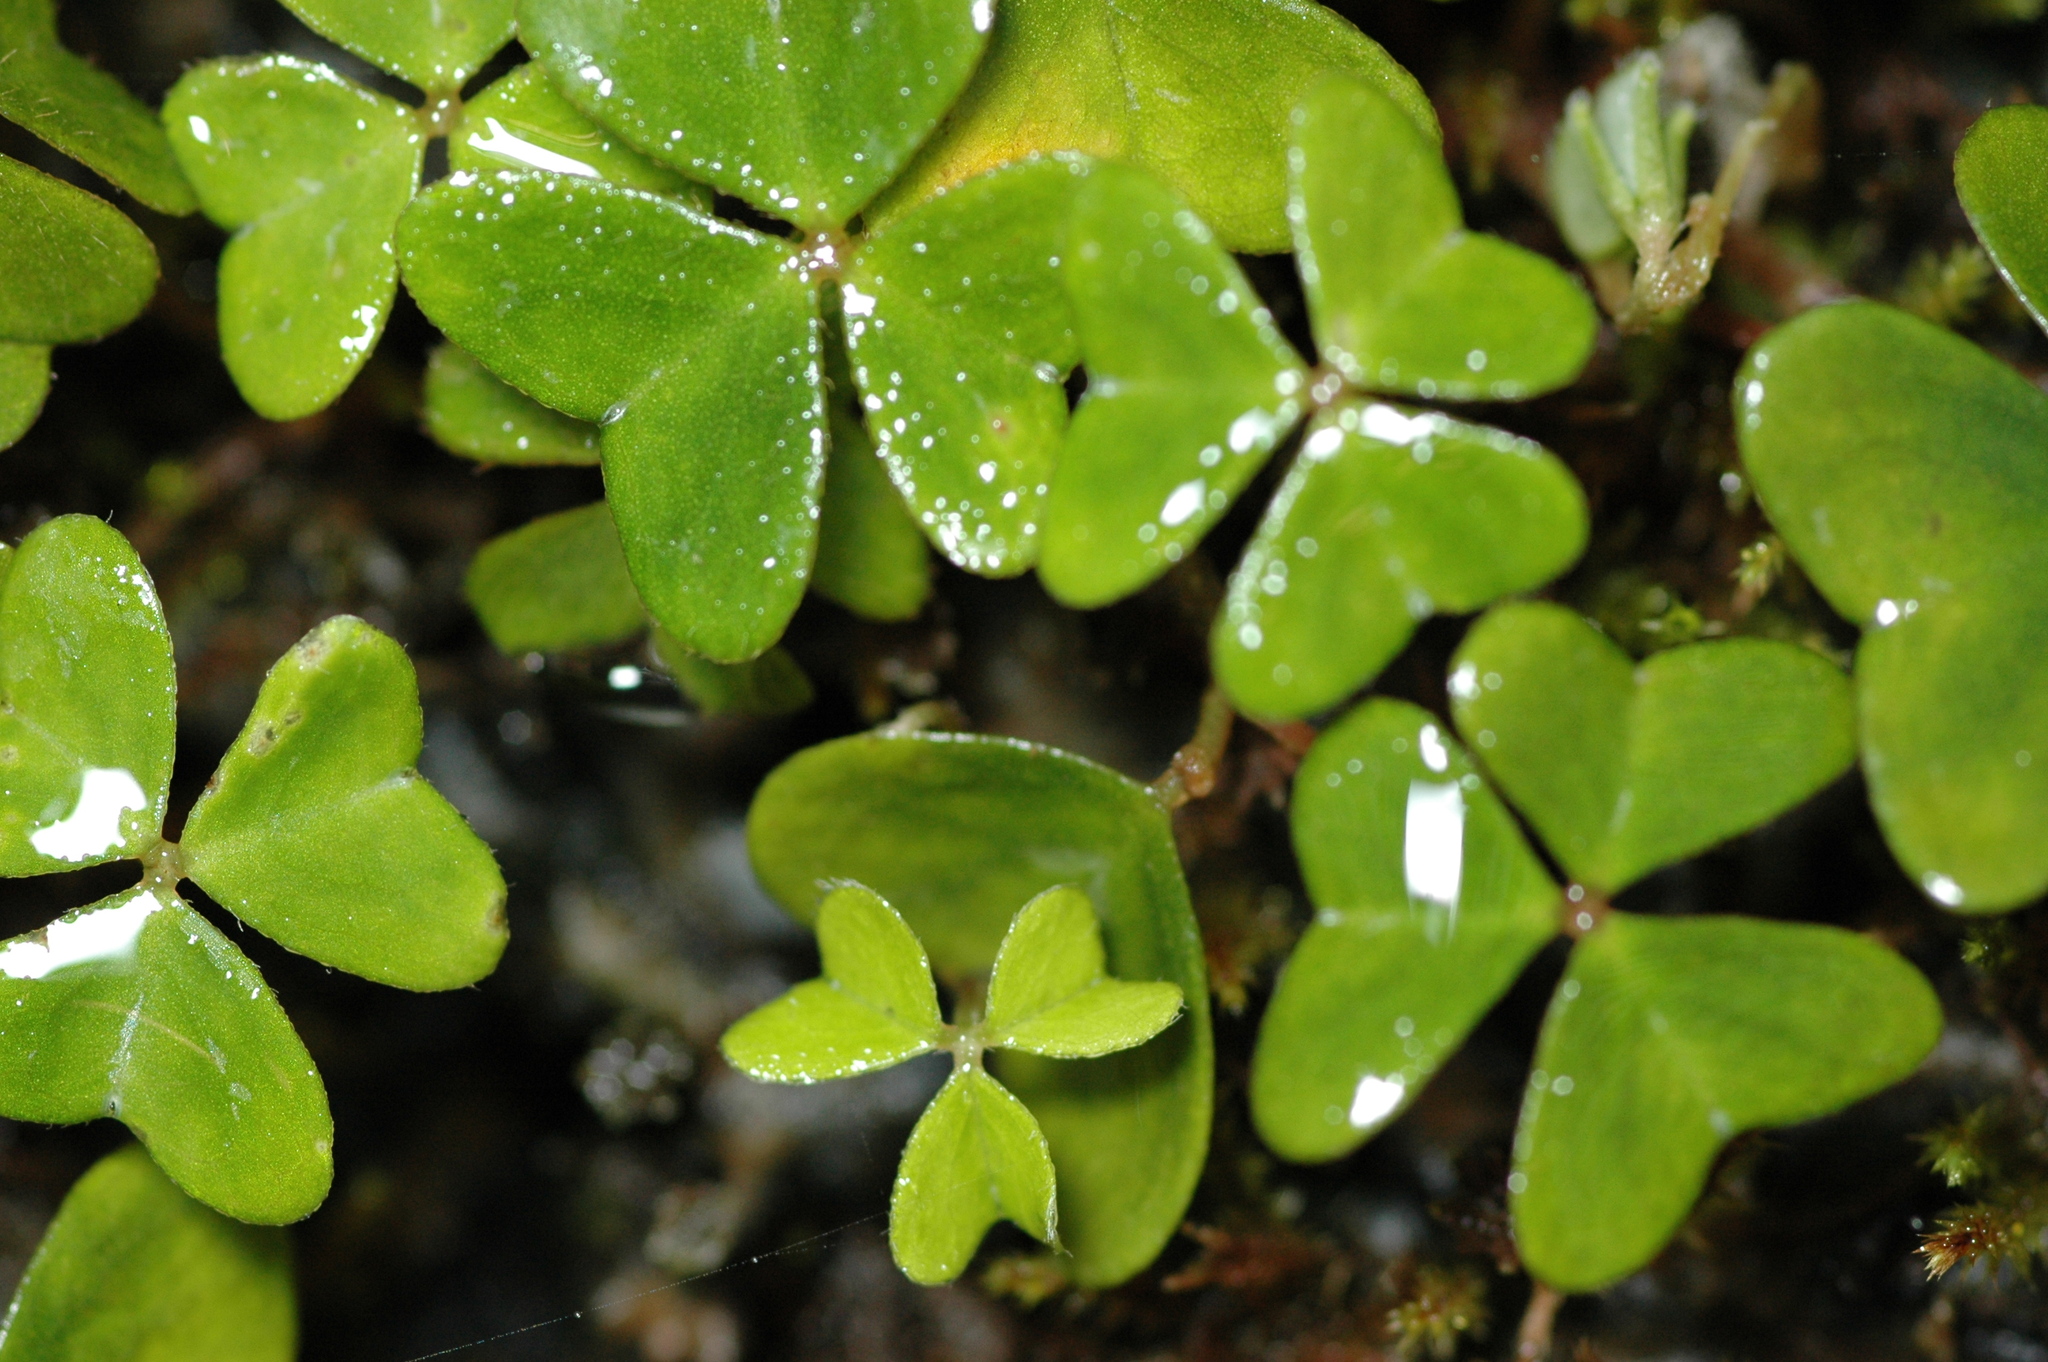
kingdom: Plantae
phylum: Tracheophyta
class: Magnoliopsida
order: Oxalidales
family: Oxalidaceae
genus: Oxalis
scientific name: Oxalis griffithii
